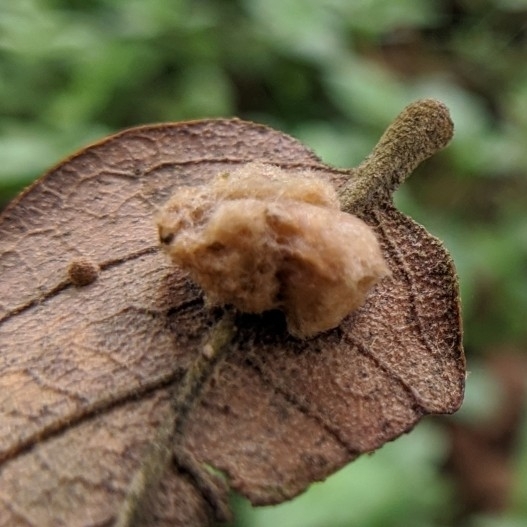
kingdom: Animalia
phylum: Arthropoda
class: Insecta
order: Hymenoptera
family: Cynipidae
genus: Andricus
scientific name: Andricus Druon pattoni
